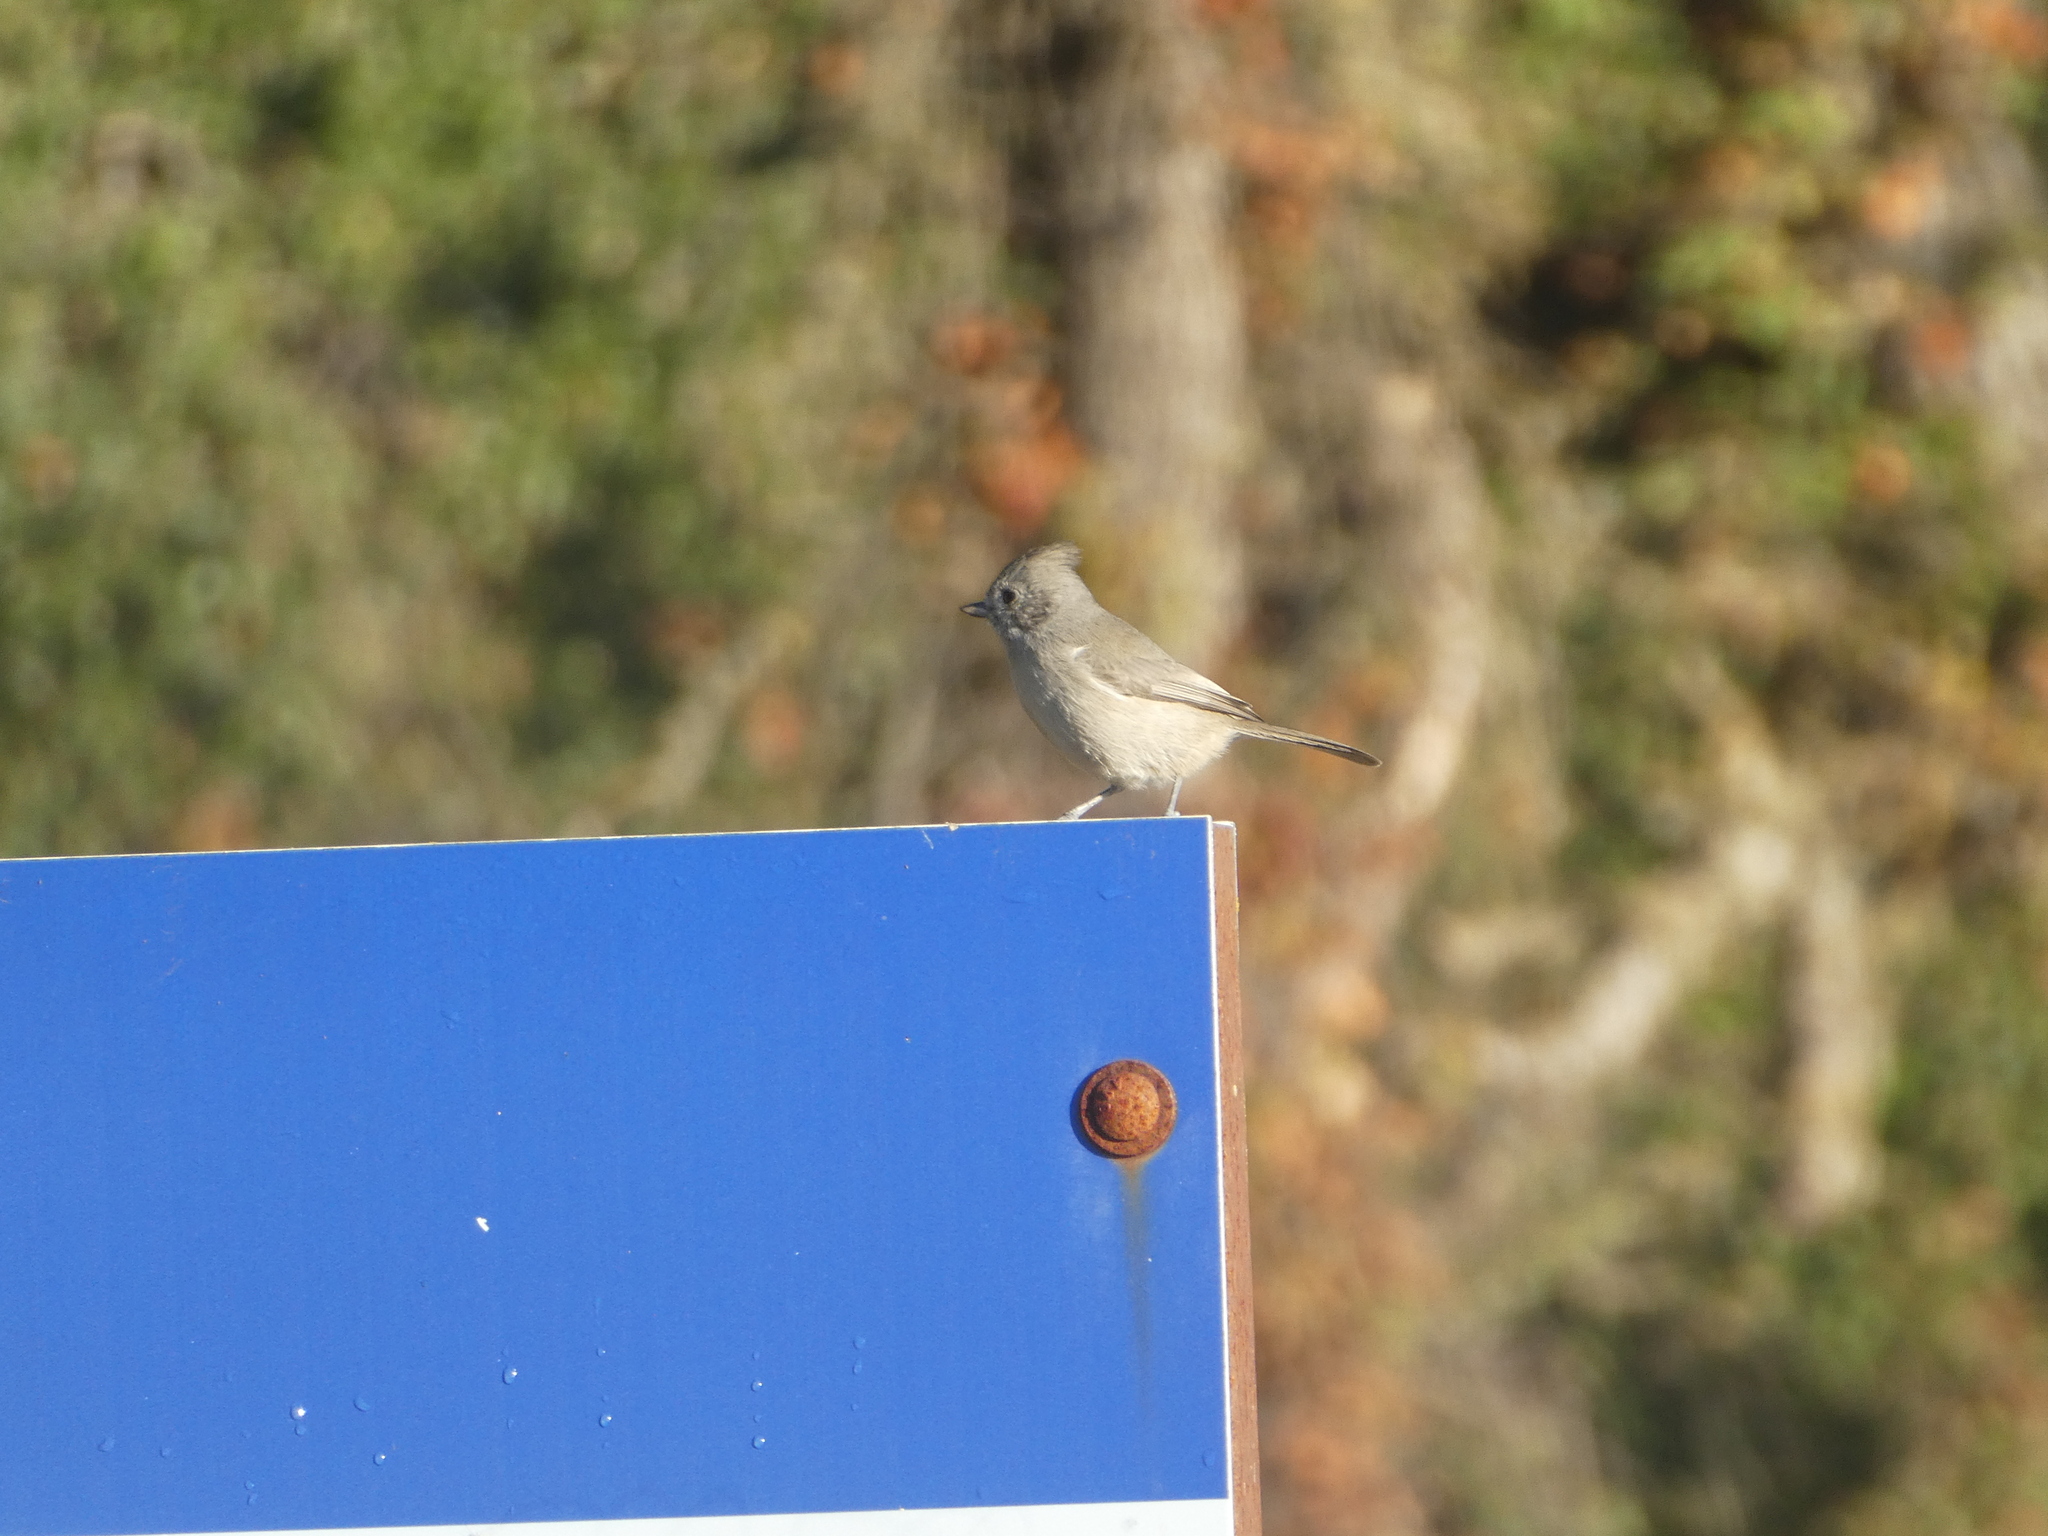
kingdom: Animalia
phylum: Chordata
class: Aves
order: Passeriformes
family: Paridae
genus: Baeolophus
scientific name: Baeolophus inornatus
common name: Oak titmouse
